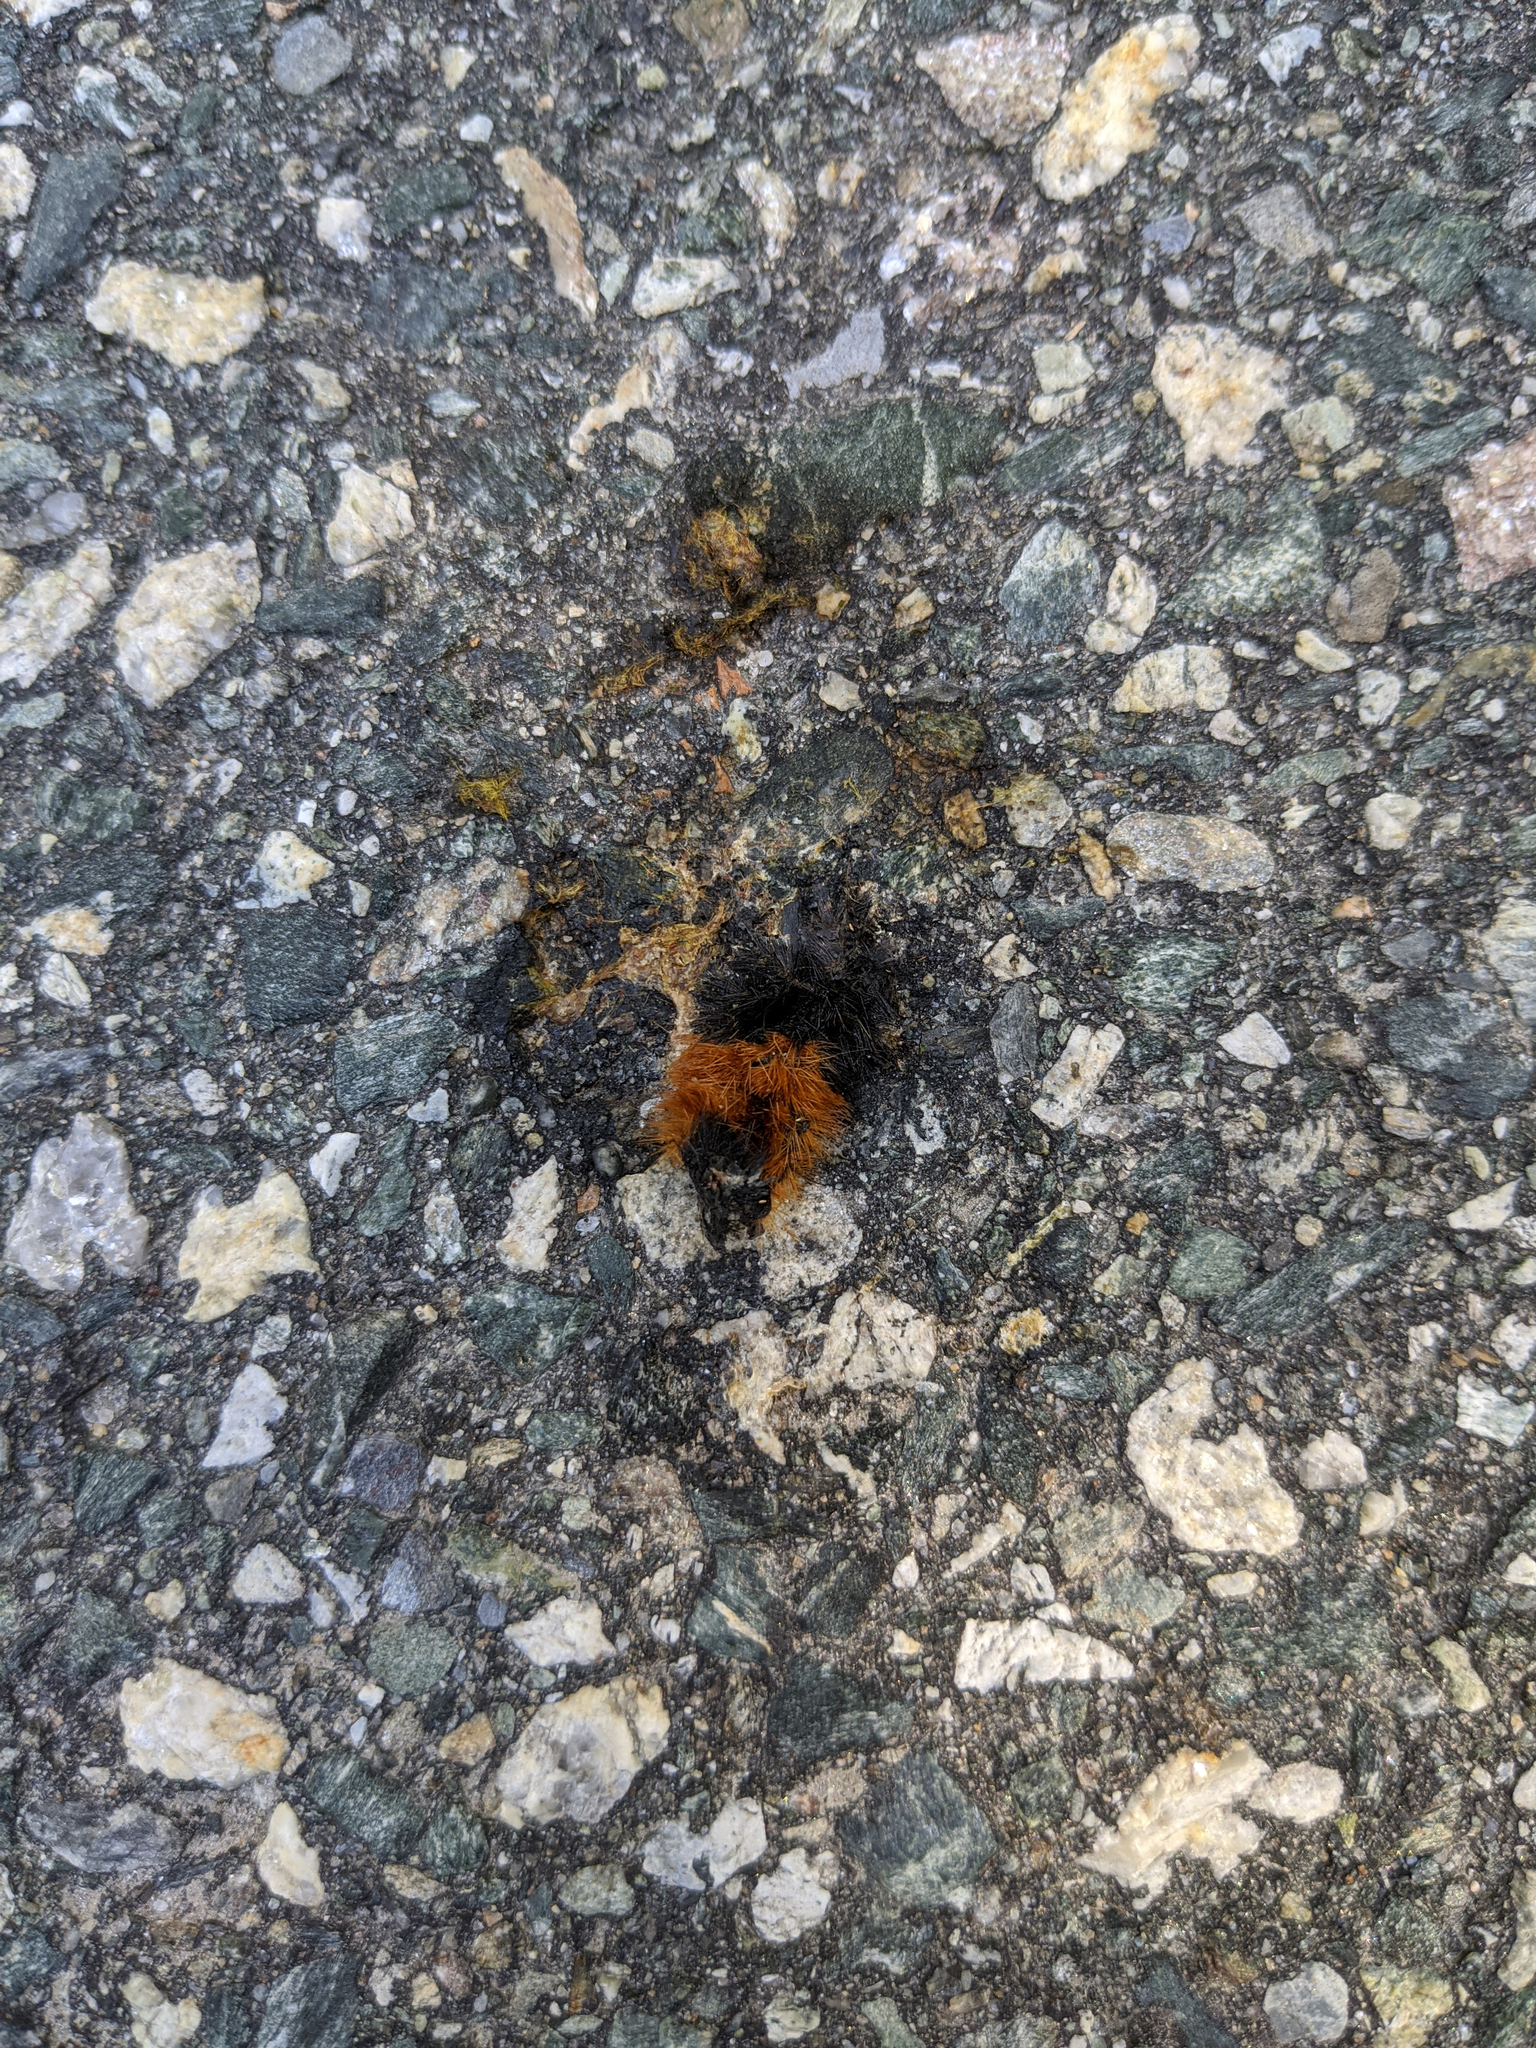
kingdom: Animalia
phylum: Arthropoda
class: Insecta
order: Lepidoptera
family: Erebidae
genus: Pyrrharctia
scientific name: Pyrrharctia isabella
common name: Isabella tiger moth
